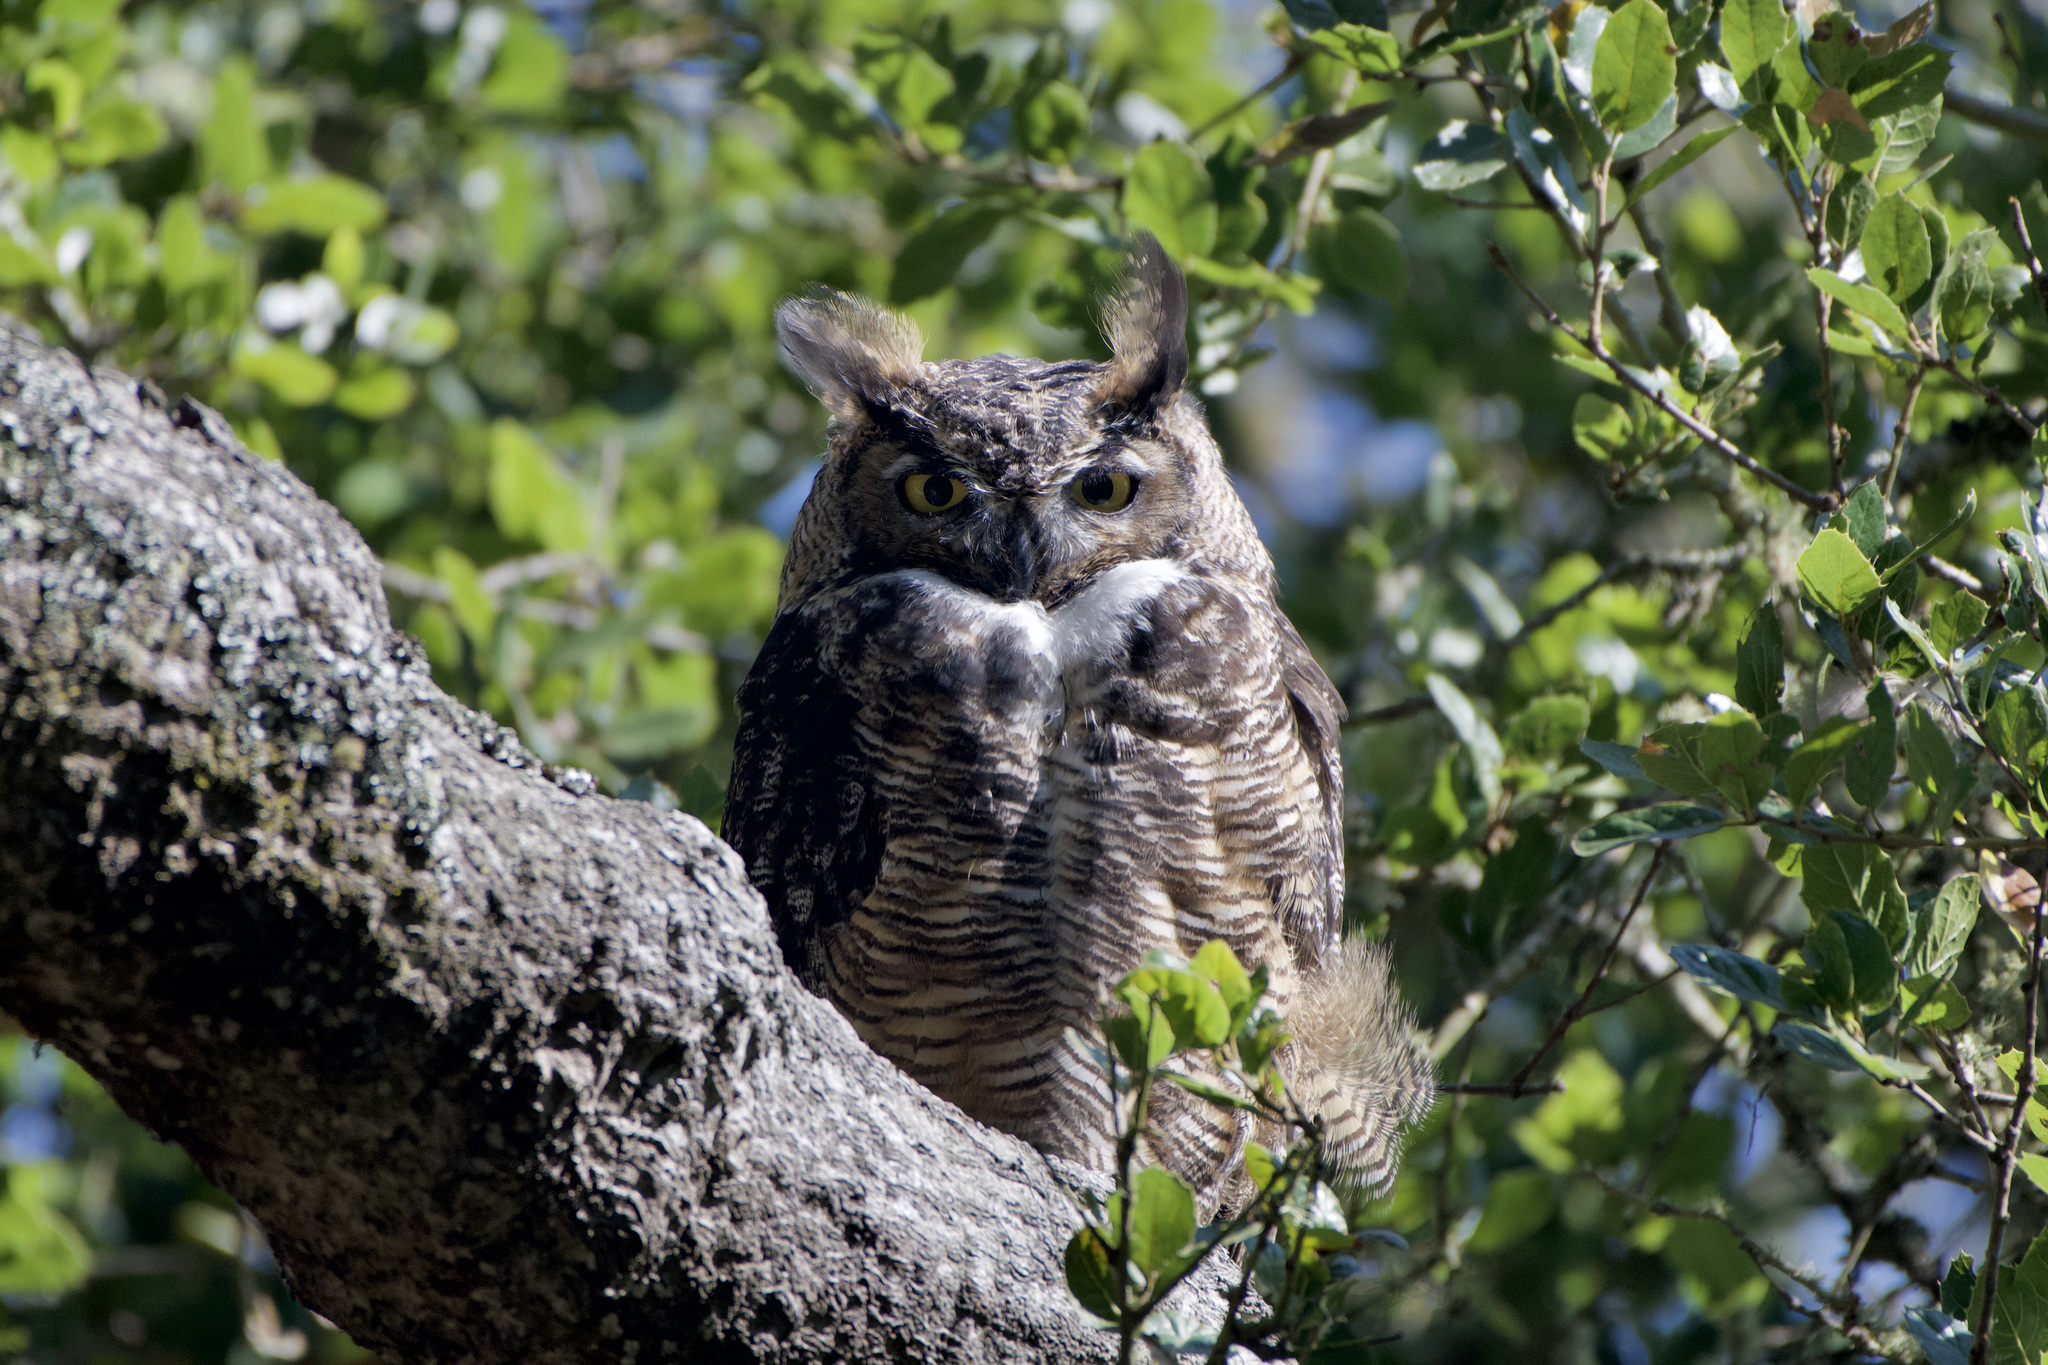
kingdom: Animalia
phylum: Chordata
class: Aves
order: Strigiformes
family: Strigidae
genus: Bubo
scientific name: Bubo virginianus
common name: Great horned owl
